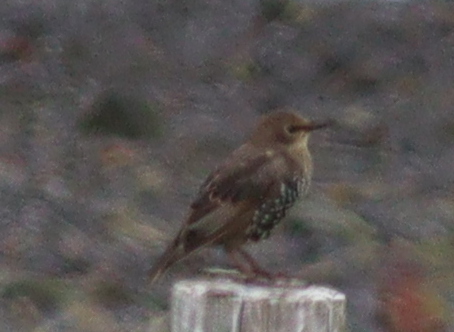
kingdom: Animalia
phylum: Chordata
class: Aves
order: Passeriformes
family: Sturnidae
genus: Sturnus
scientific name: Sturnus vulgaris
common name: Common starling
